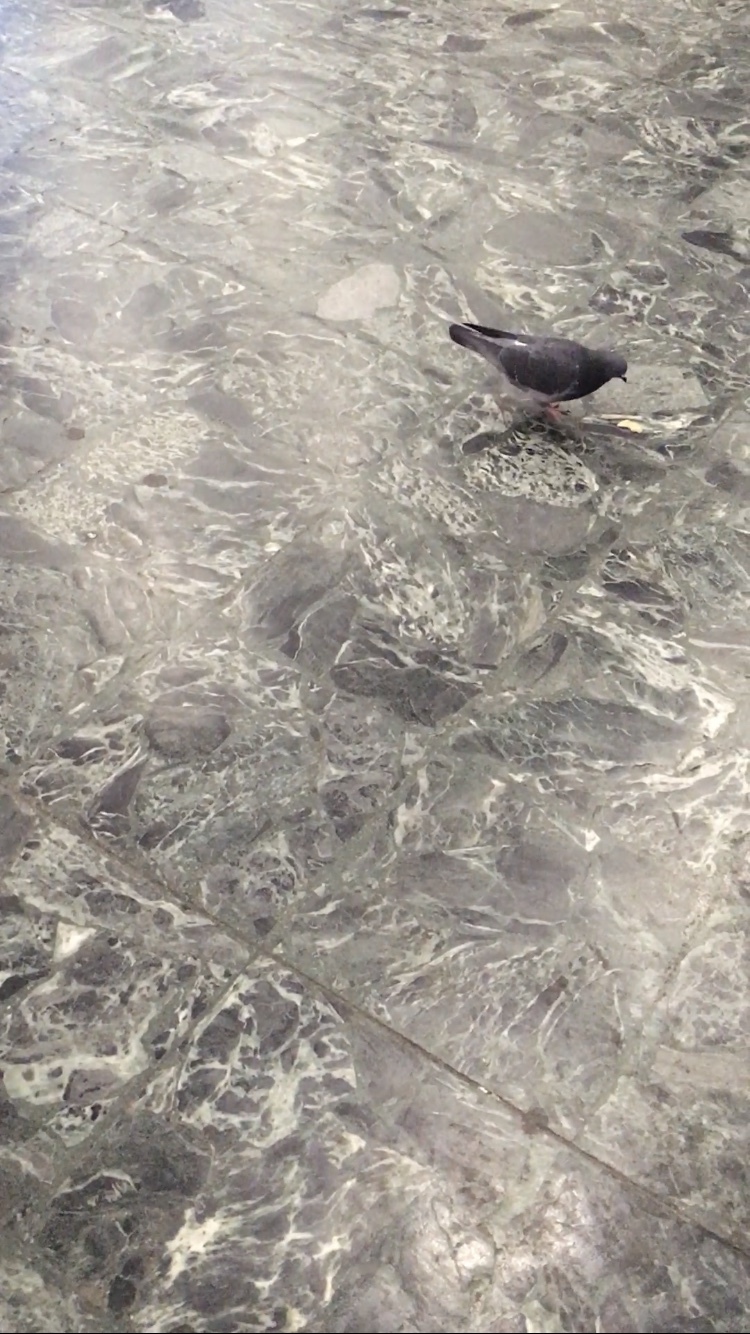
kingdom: Animalia
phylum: Chordata
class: Aves
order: Columbiformes
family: Columbidae
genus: Columba
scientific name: Columba livia
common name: Rock pigeon
